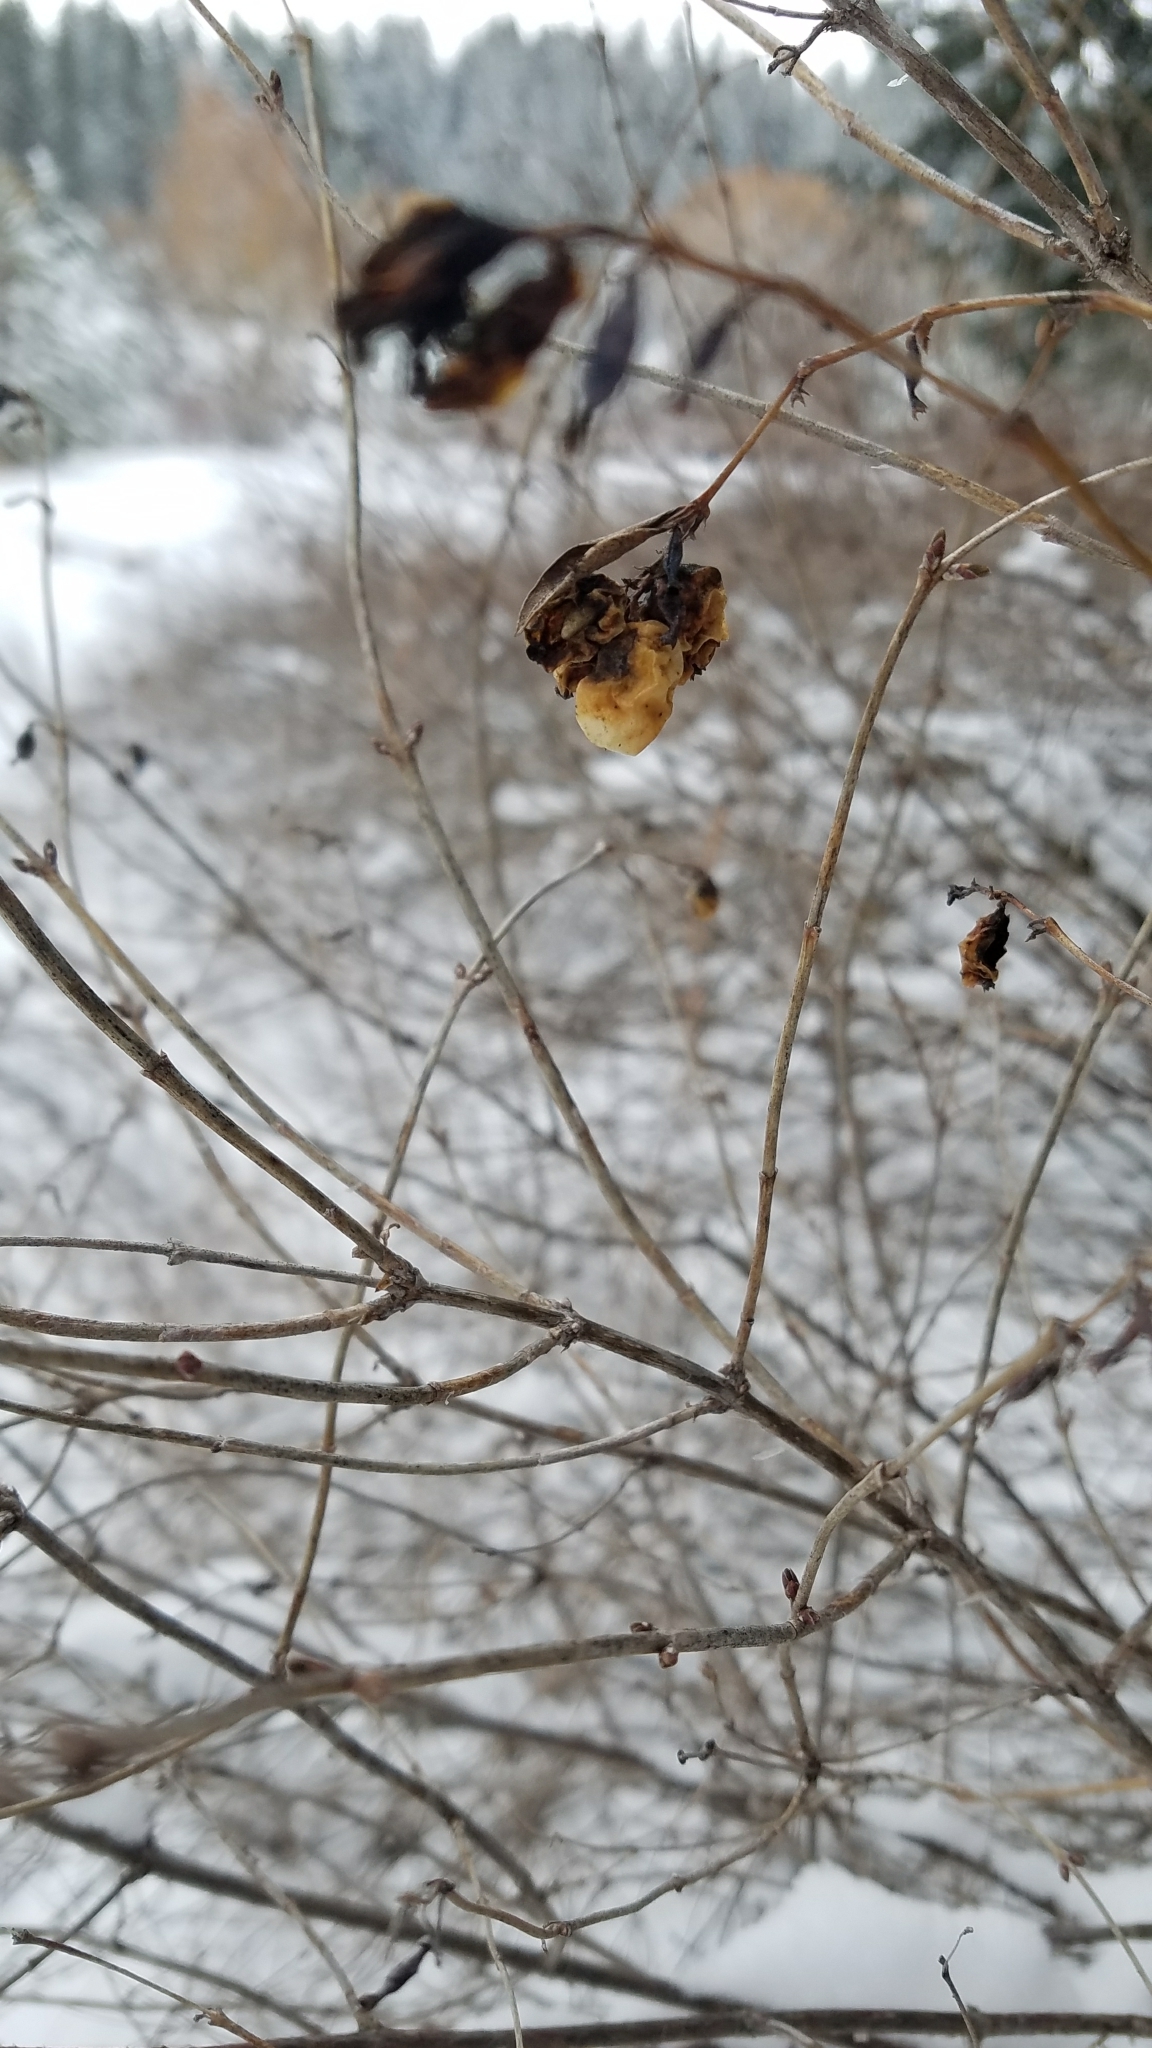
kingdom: Plantae
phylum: Tracheophyta
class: Magnoliopsida
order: Dipsacales
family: Caprifoliaceae
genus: Symphoricarpos
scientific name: Symphoricarpos albus
